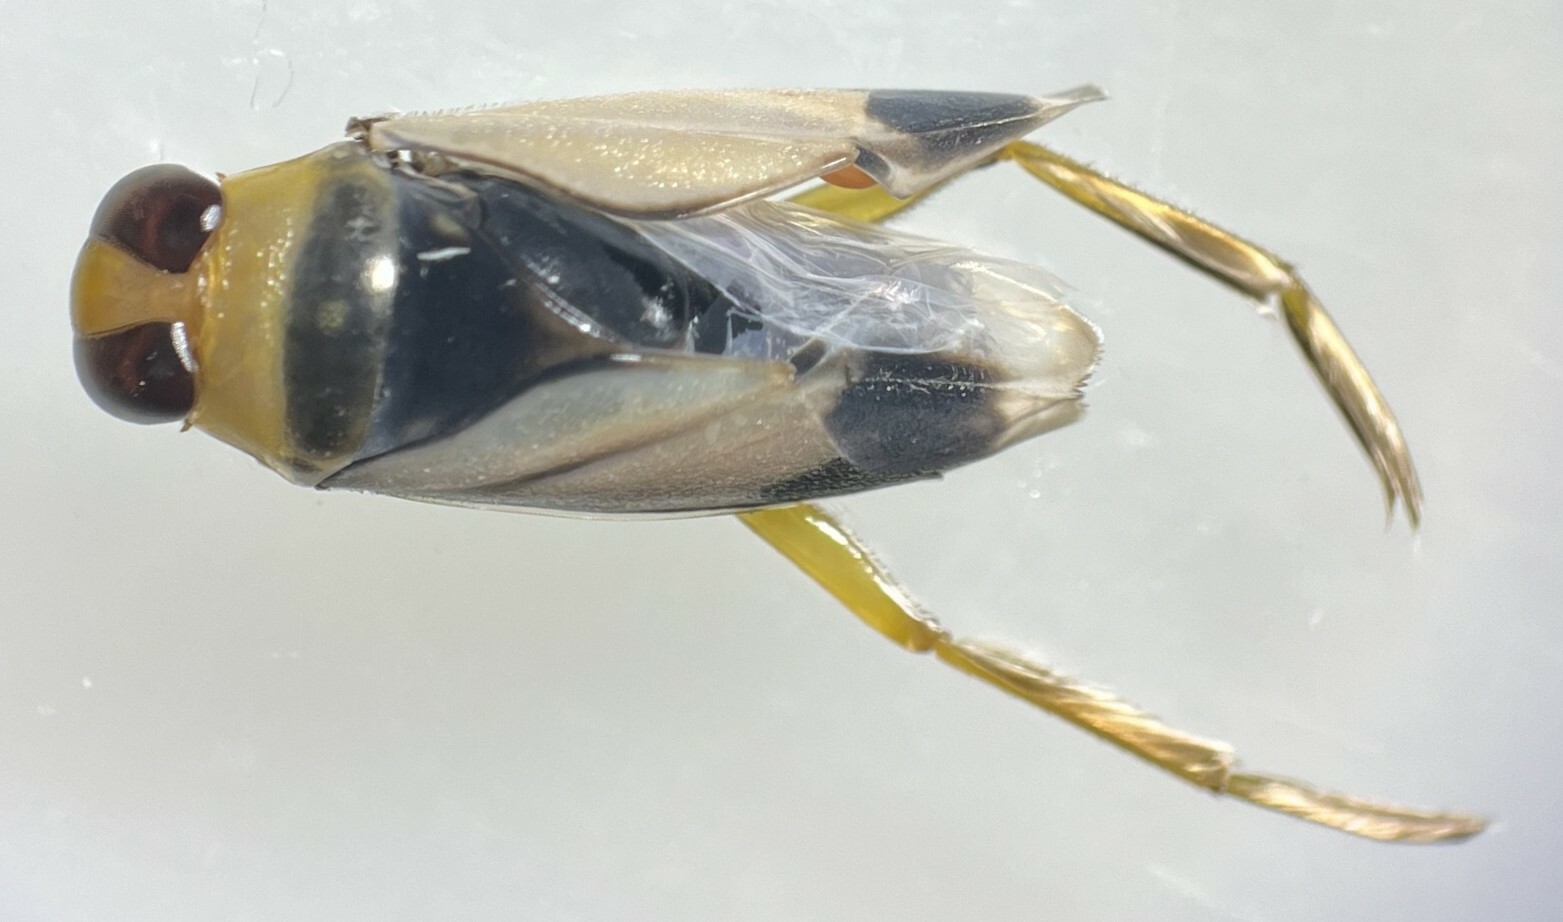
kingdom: Animalia
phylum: Arthropoda
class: Insecta
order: Hemiptera
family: Notonectidae
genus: Notonecta
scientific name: Notonecta indica
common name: Backswimmer
